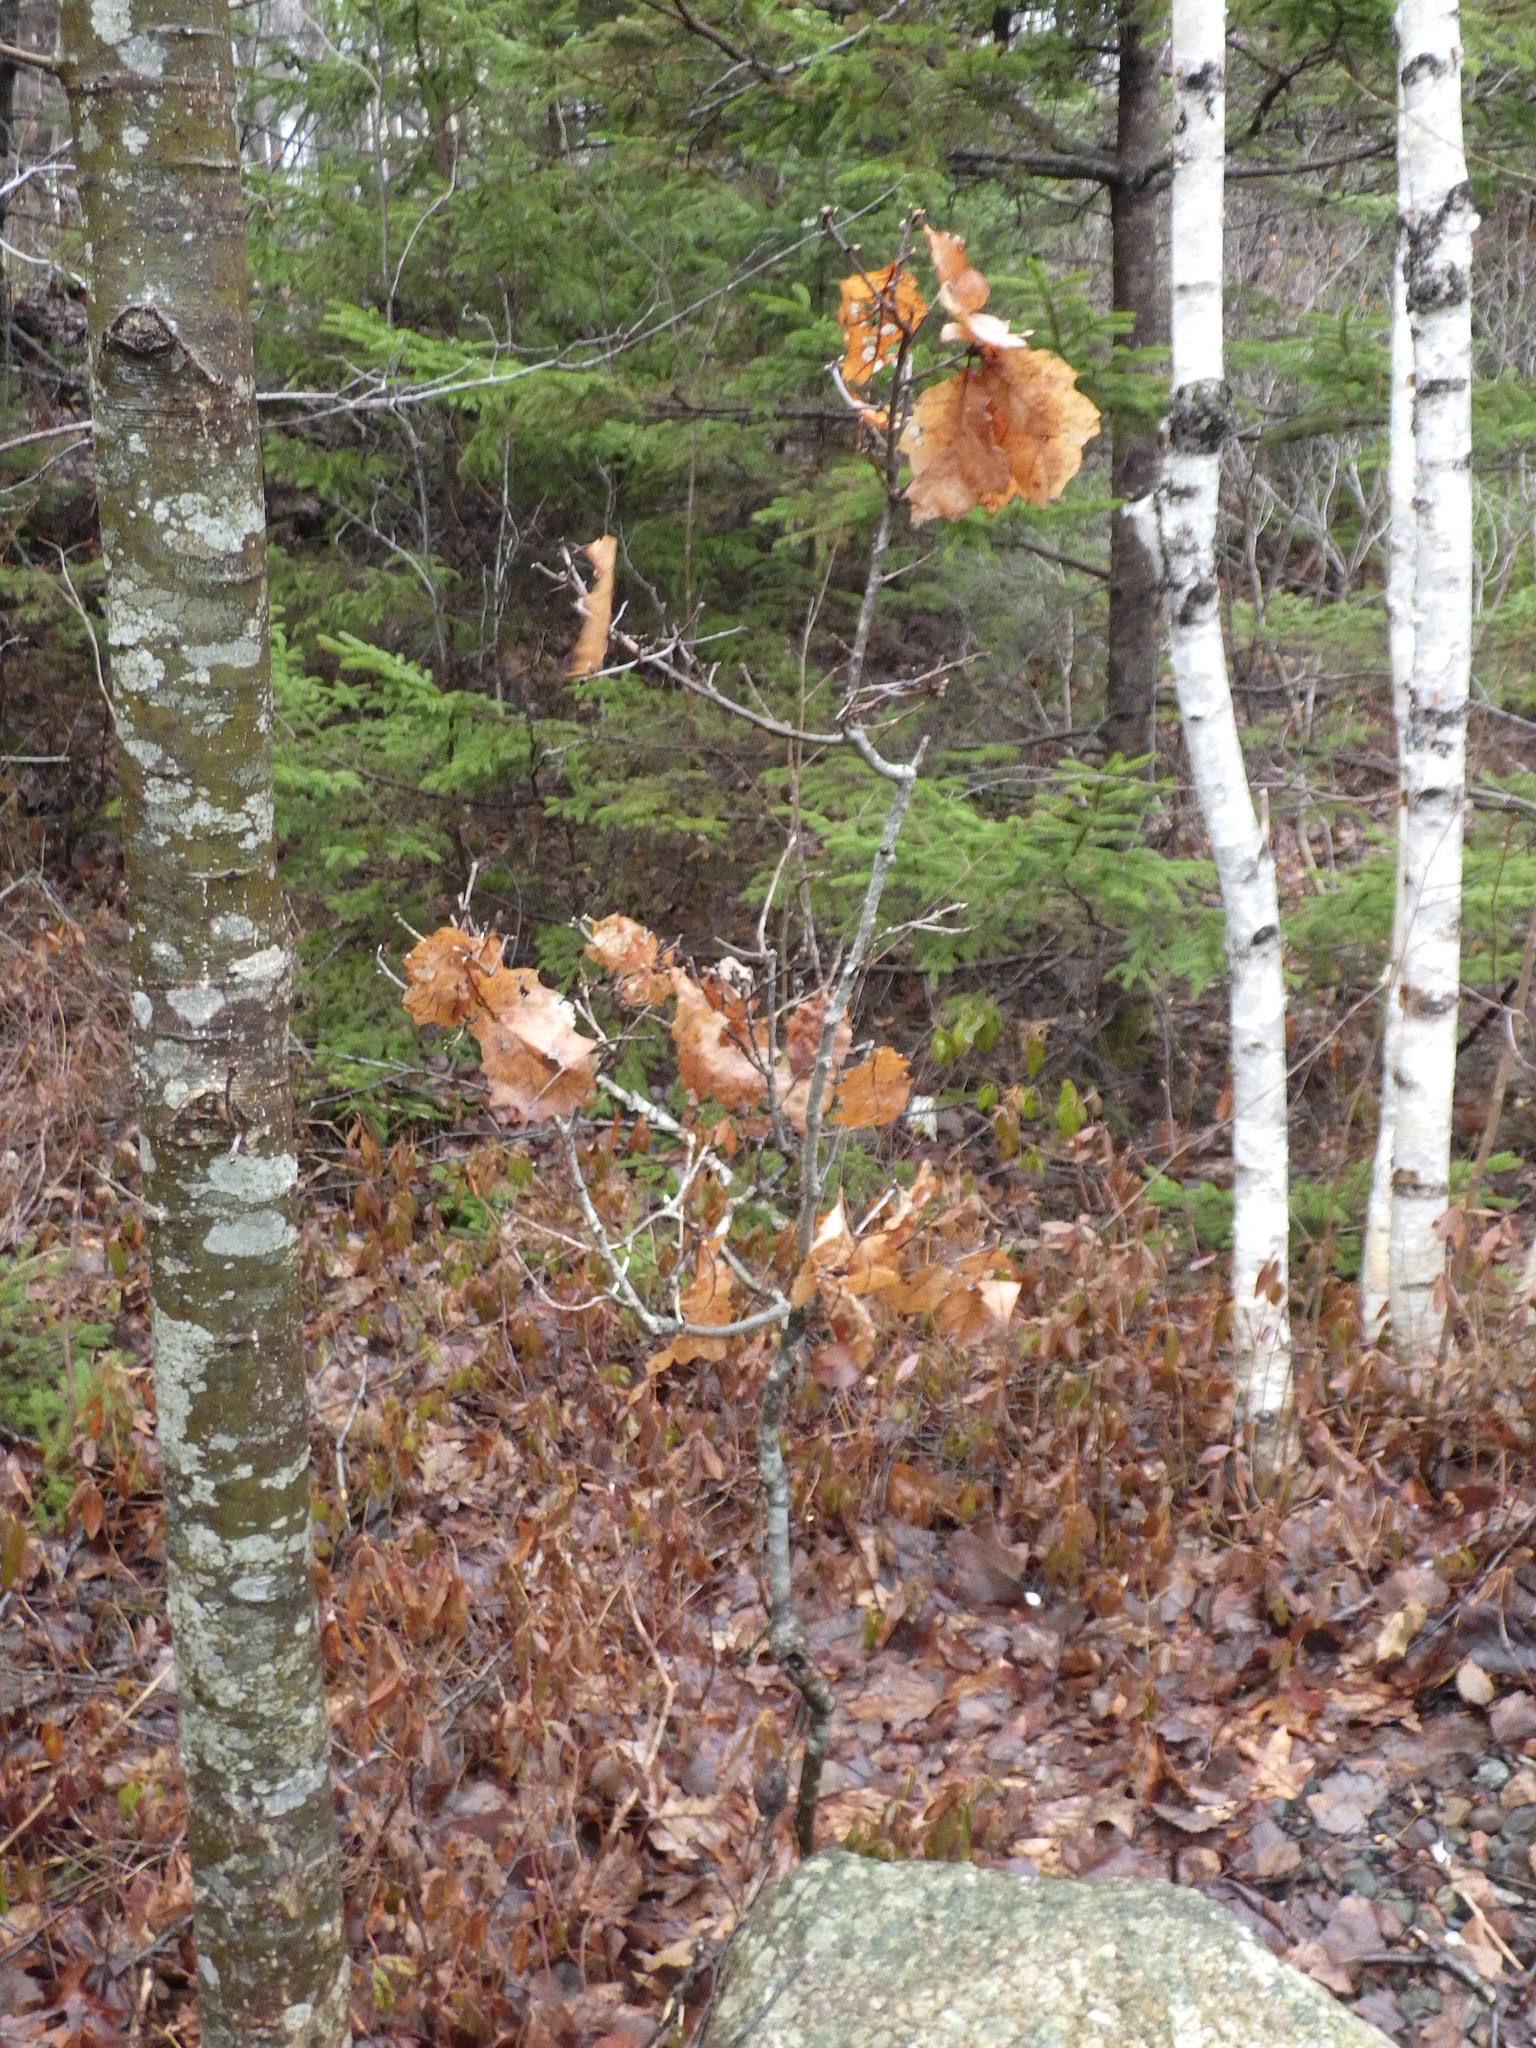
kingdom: Plantae
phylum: Tracheophyta
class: Magnoliopsida
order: Fagales
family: Fagaceae
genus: Quercus
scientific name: Quercus rubra
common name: Red oak
